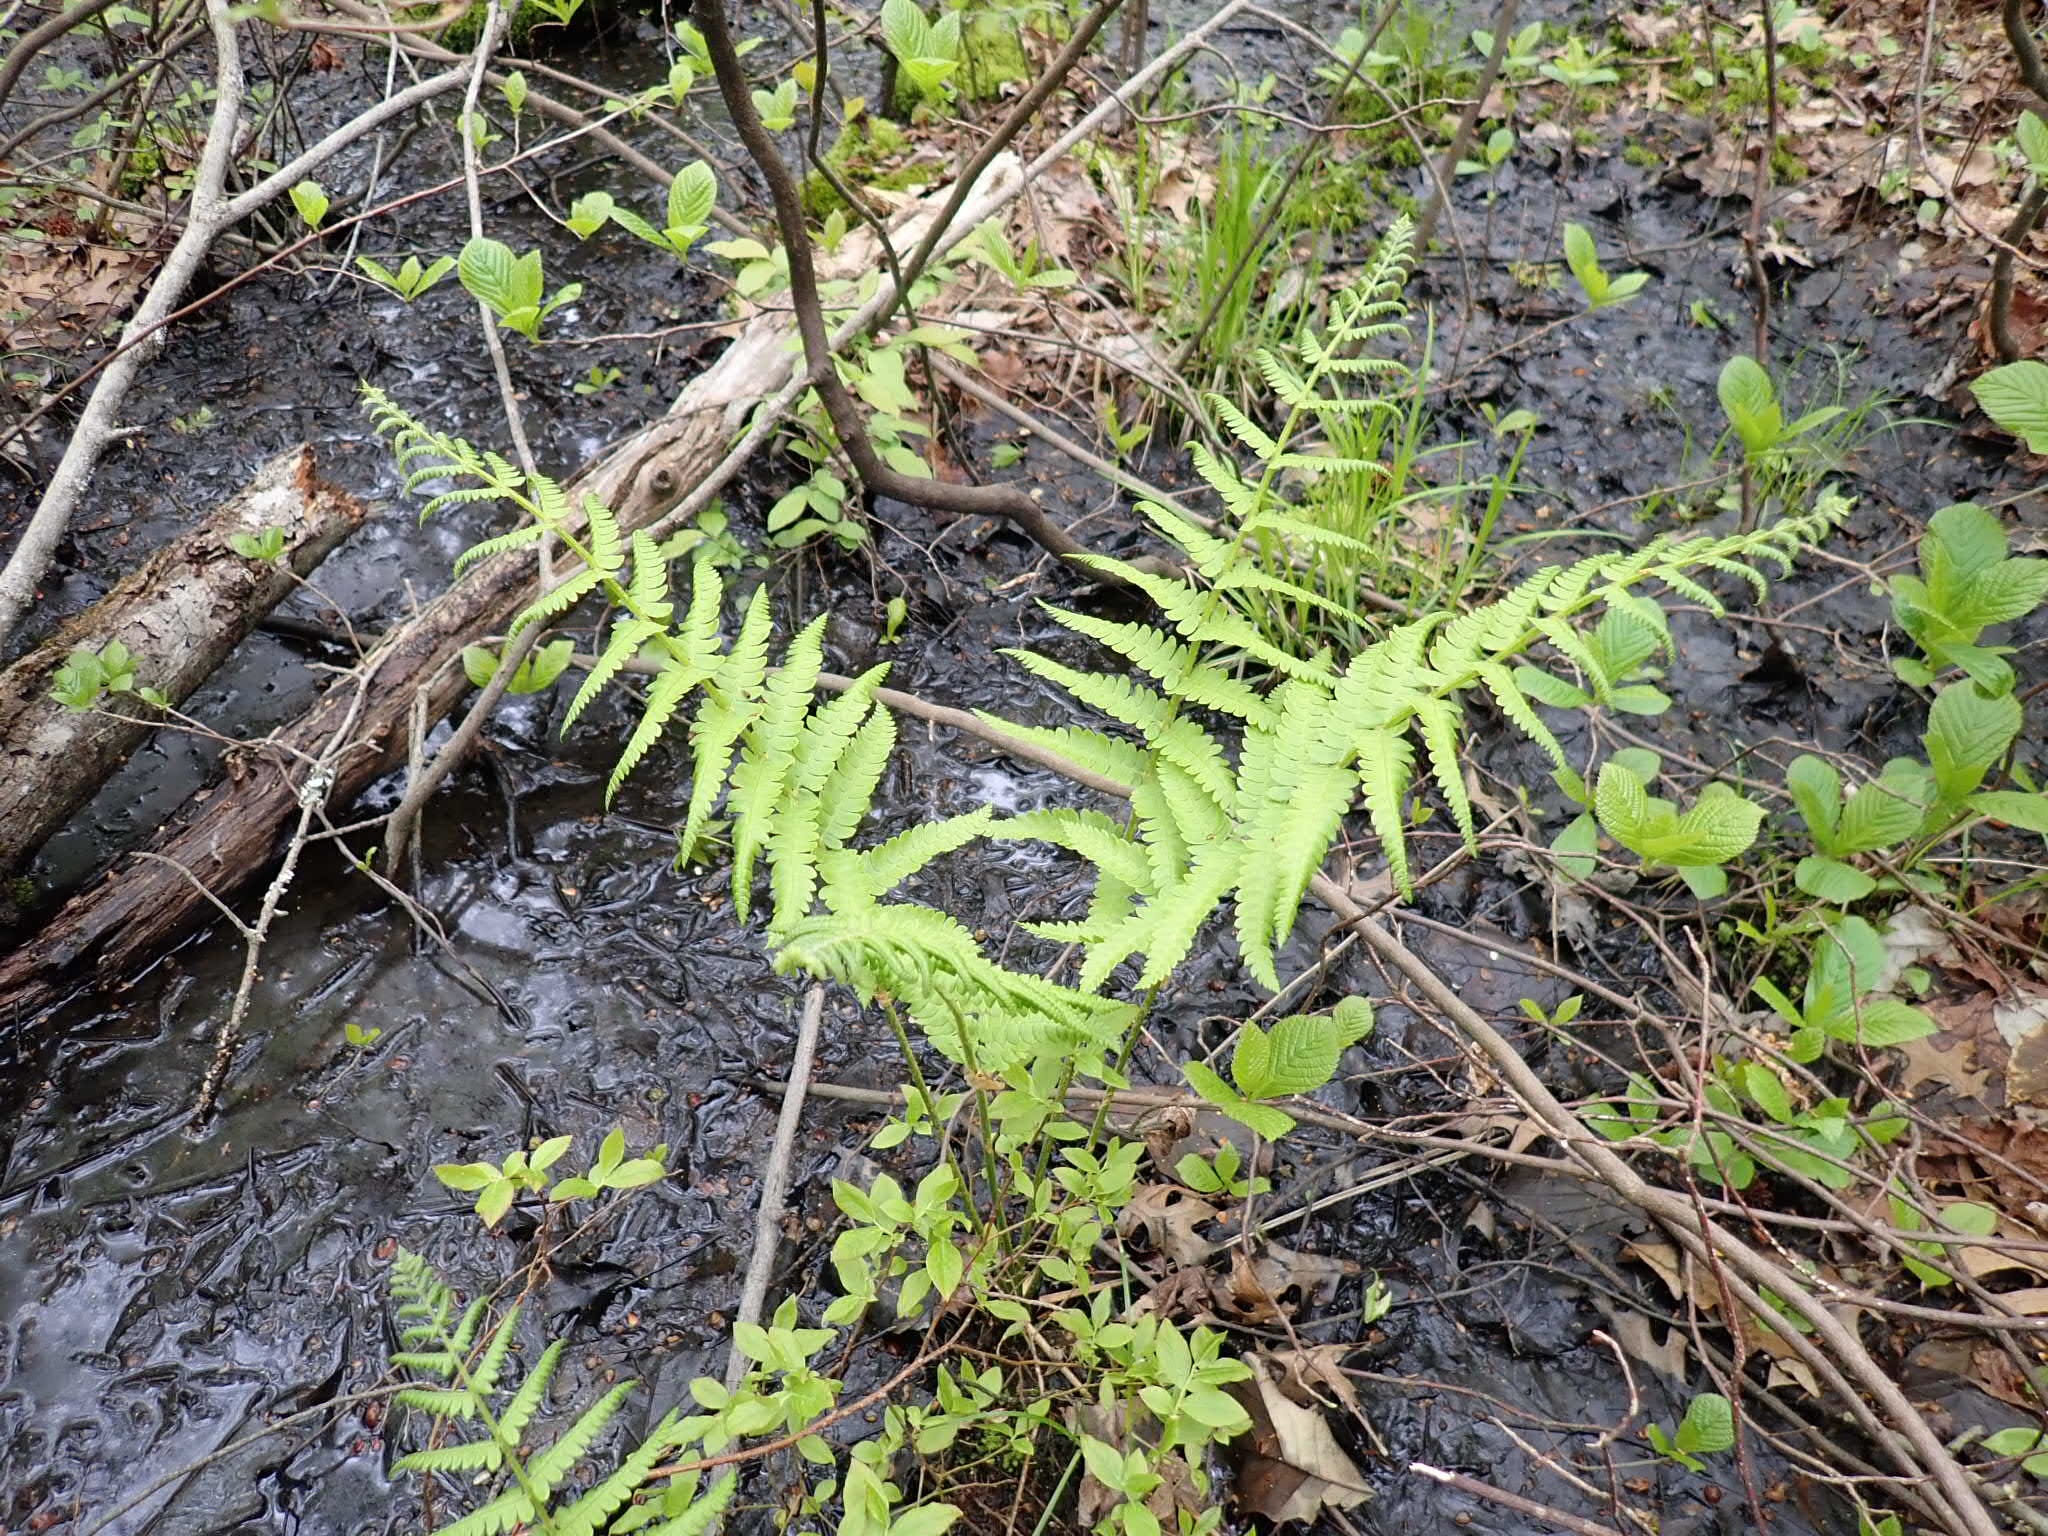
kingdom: Plantae
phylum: Tracheophyta
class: Polypodiopsida
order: Osmundales
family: Osmundaceae
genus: Osmundastrum
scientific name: Osmundastrum cinnamomeum
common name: Cinnamon fern
